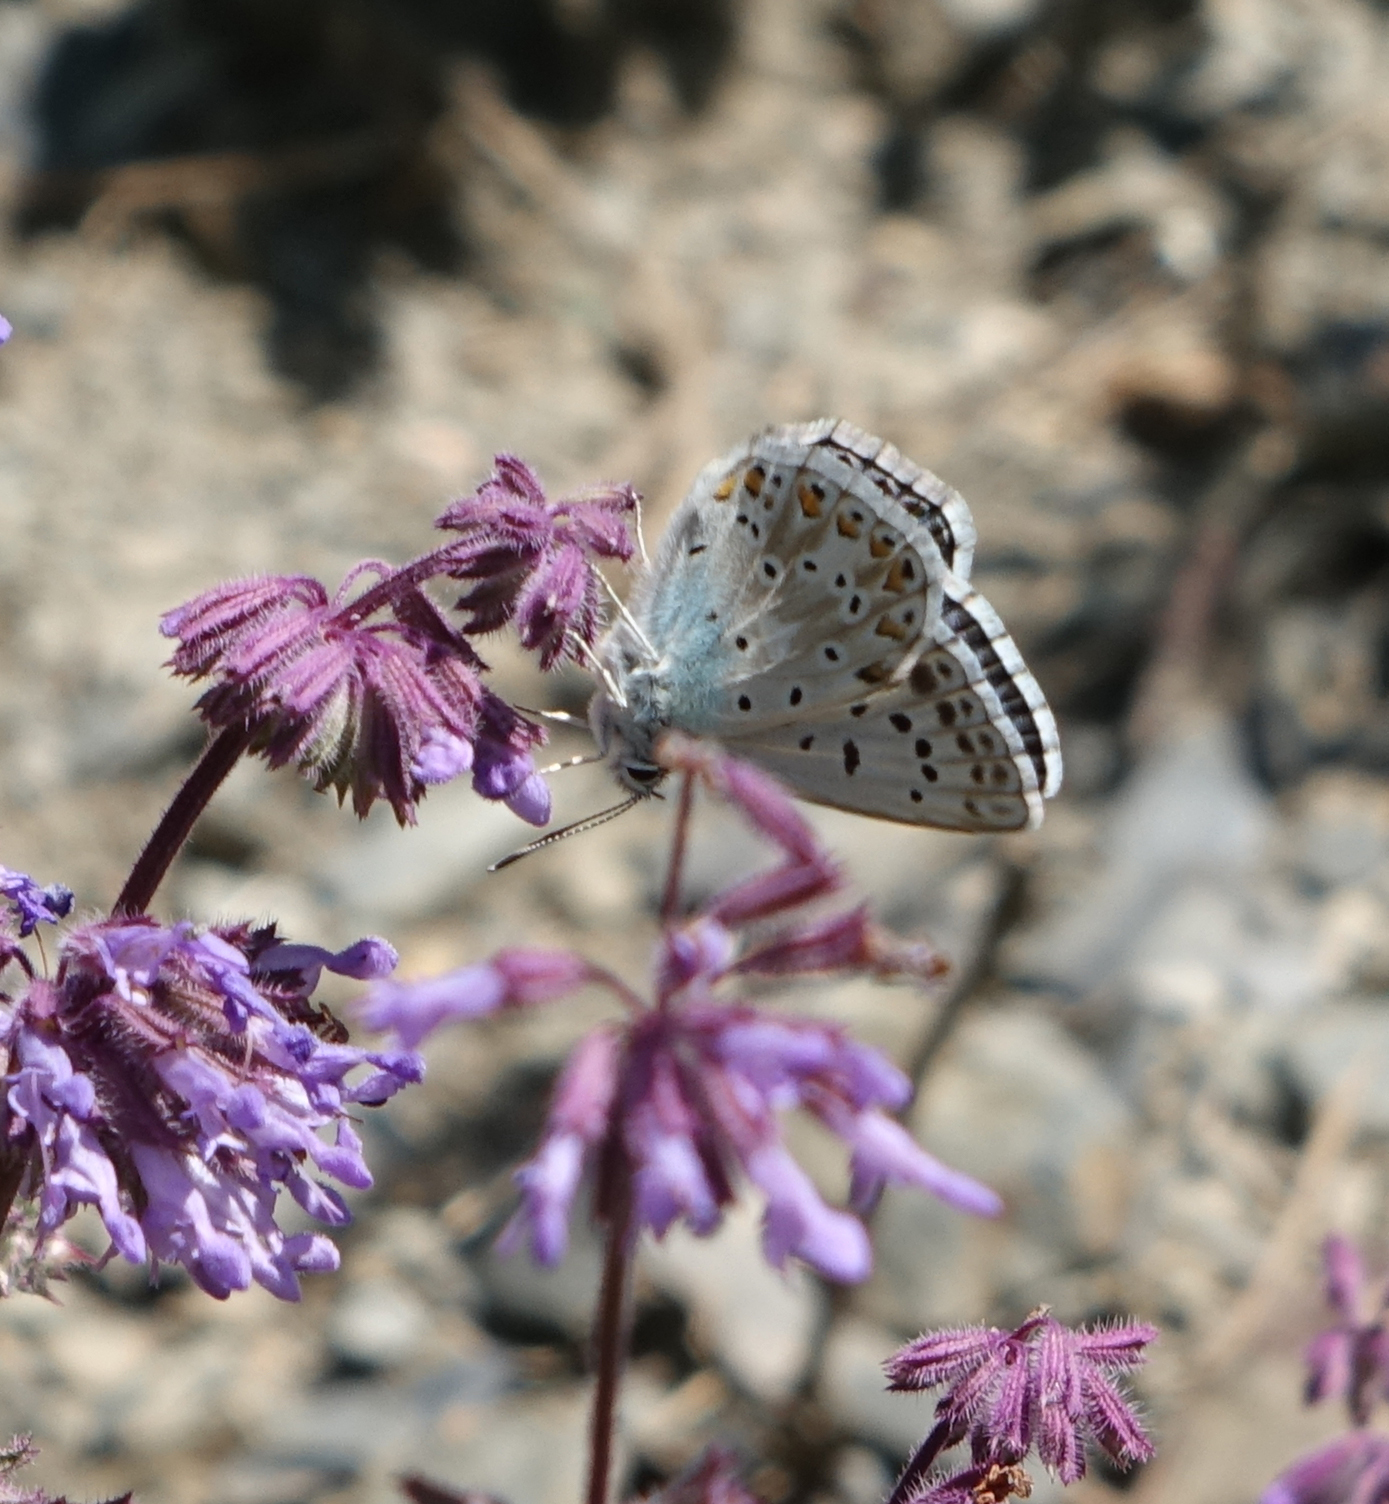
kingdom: Animalia
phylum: Arthropoda
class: Insecta
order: Lepidoptera
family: Lycaenidae
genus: Agriades
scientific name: Agriades corydonius
